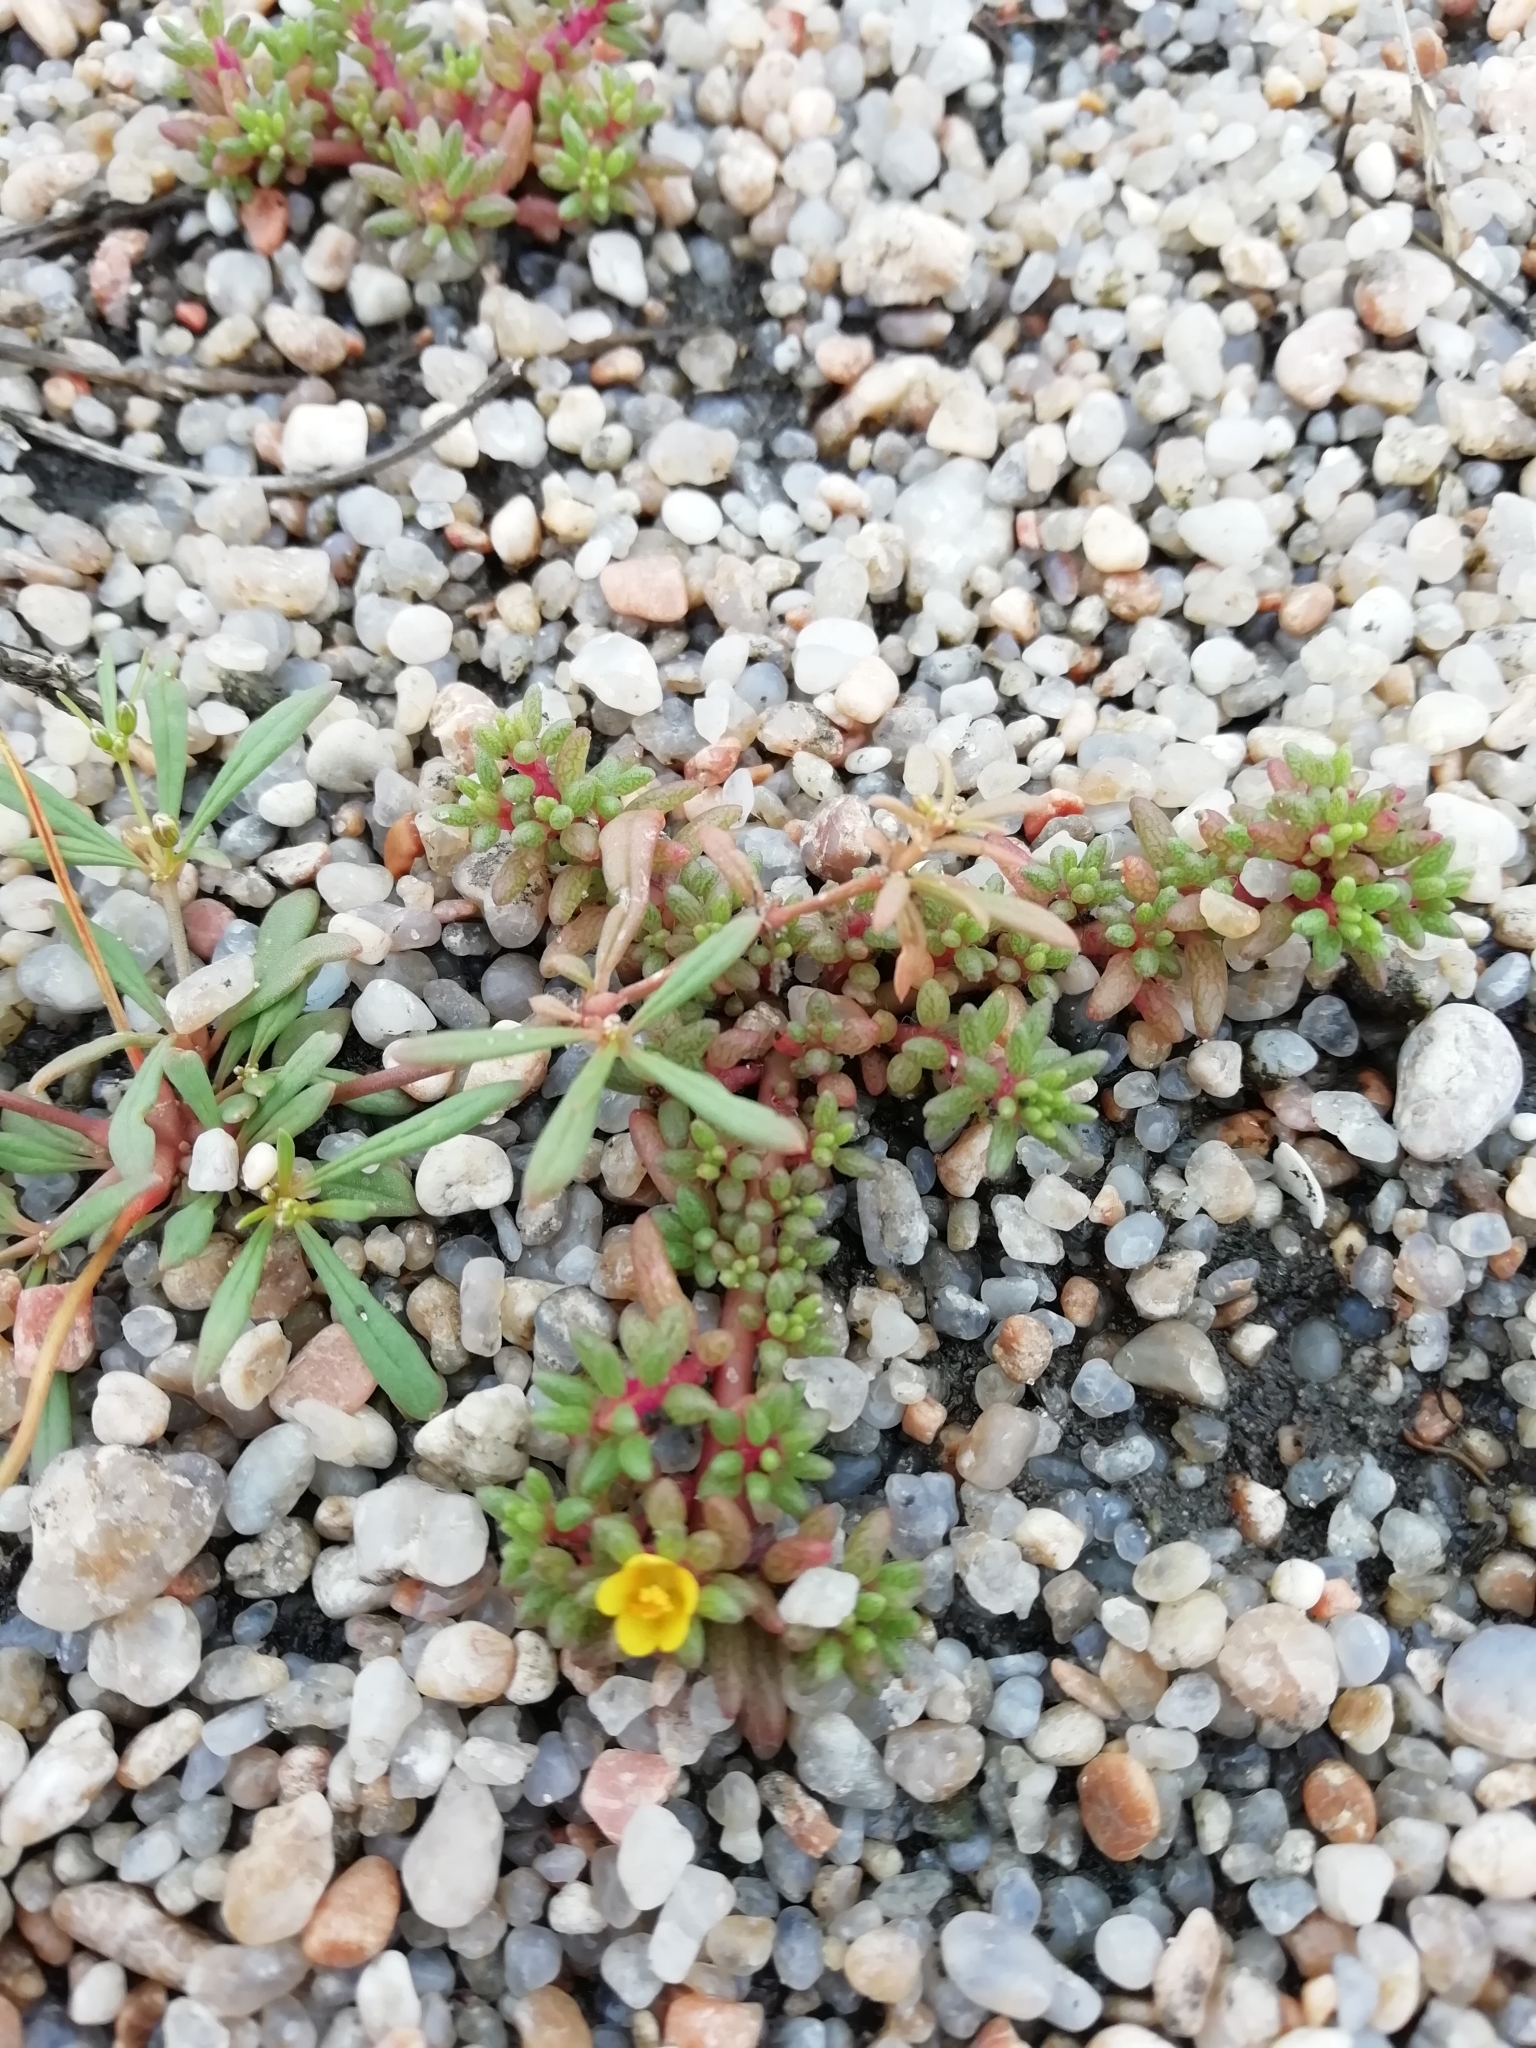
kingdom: Plantae
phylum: Tracheophyta
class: Magnoliopsida
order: Ericales
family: Primulaceae
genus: Lysimachia
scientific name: Lysimachia arvensis
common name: Scarlet pimpernel
